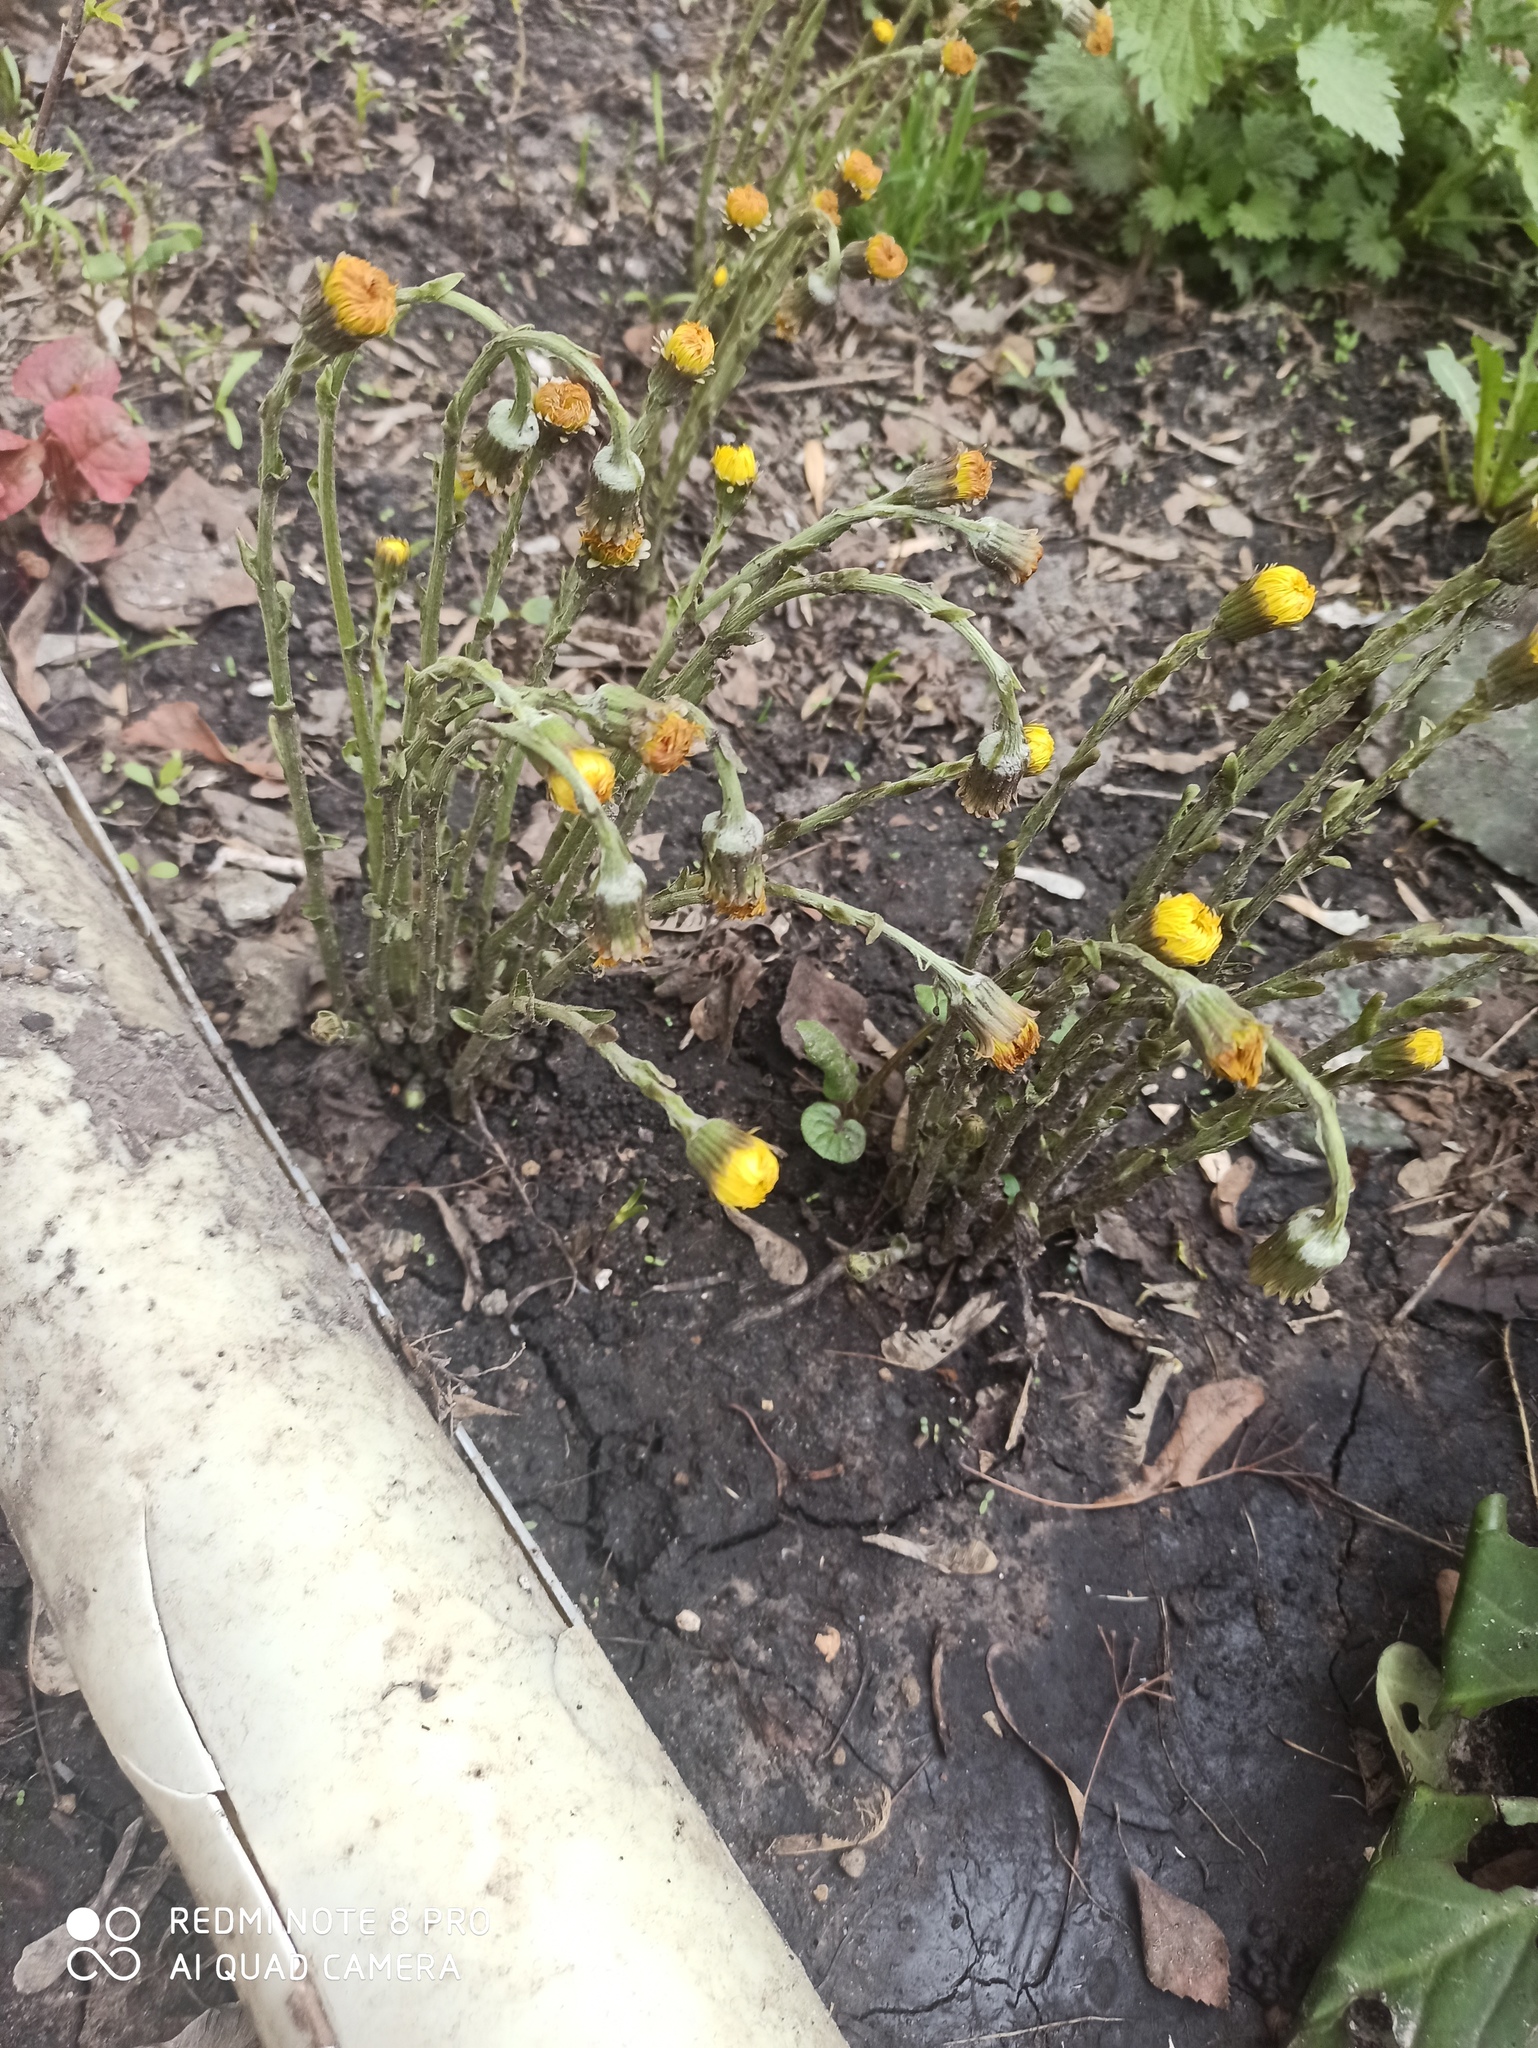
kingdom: Plantae
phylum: Tracheophyta
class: Magnoliopsida
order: Asterales
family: Asteraceae
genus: Tussilago
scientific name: Tussilago farfara
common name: Coltsfoot
